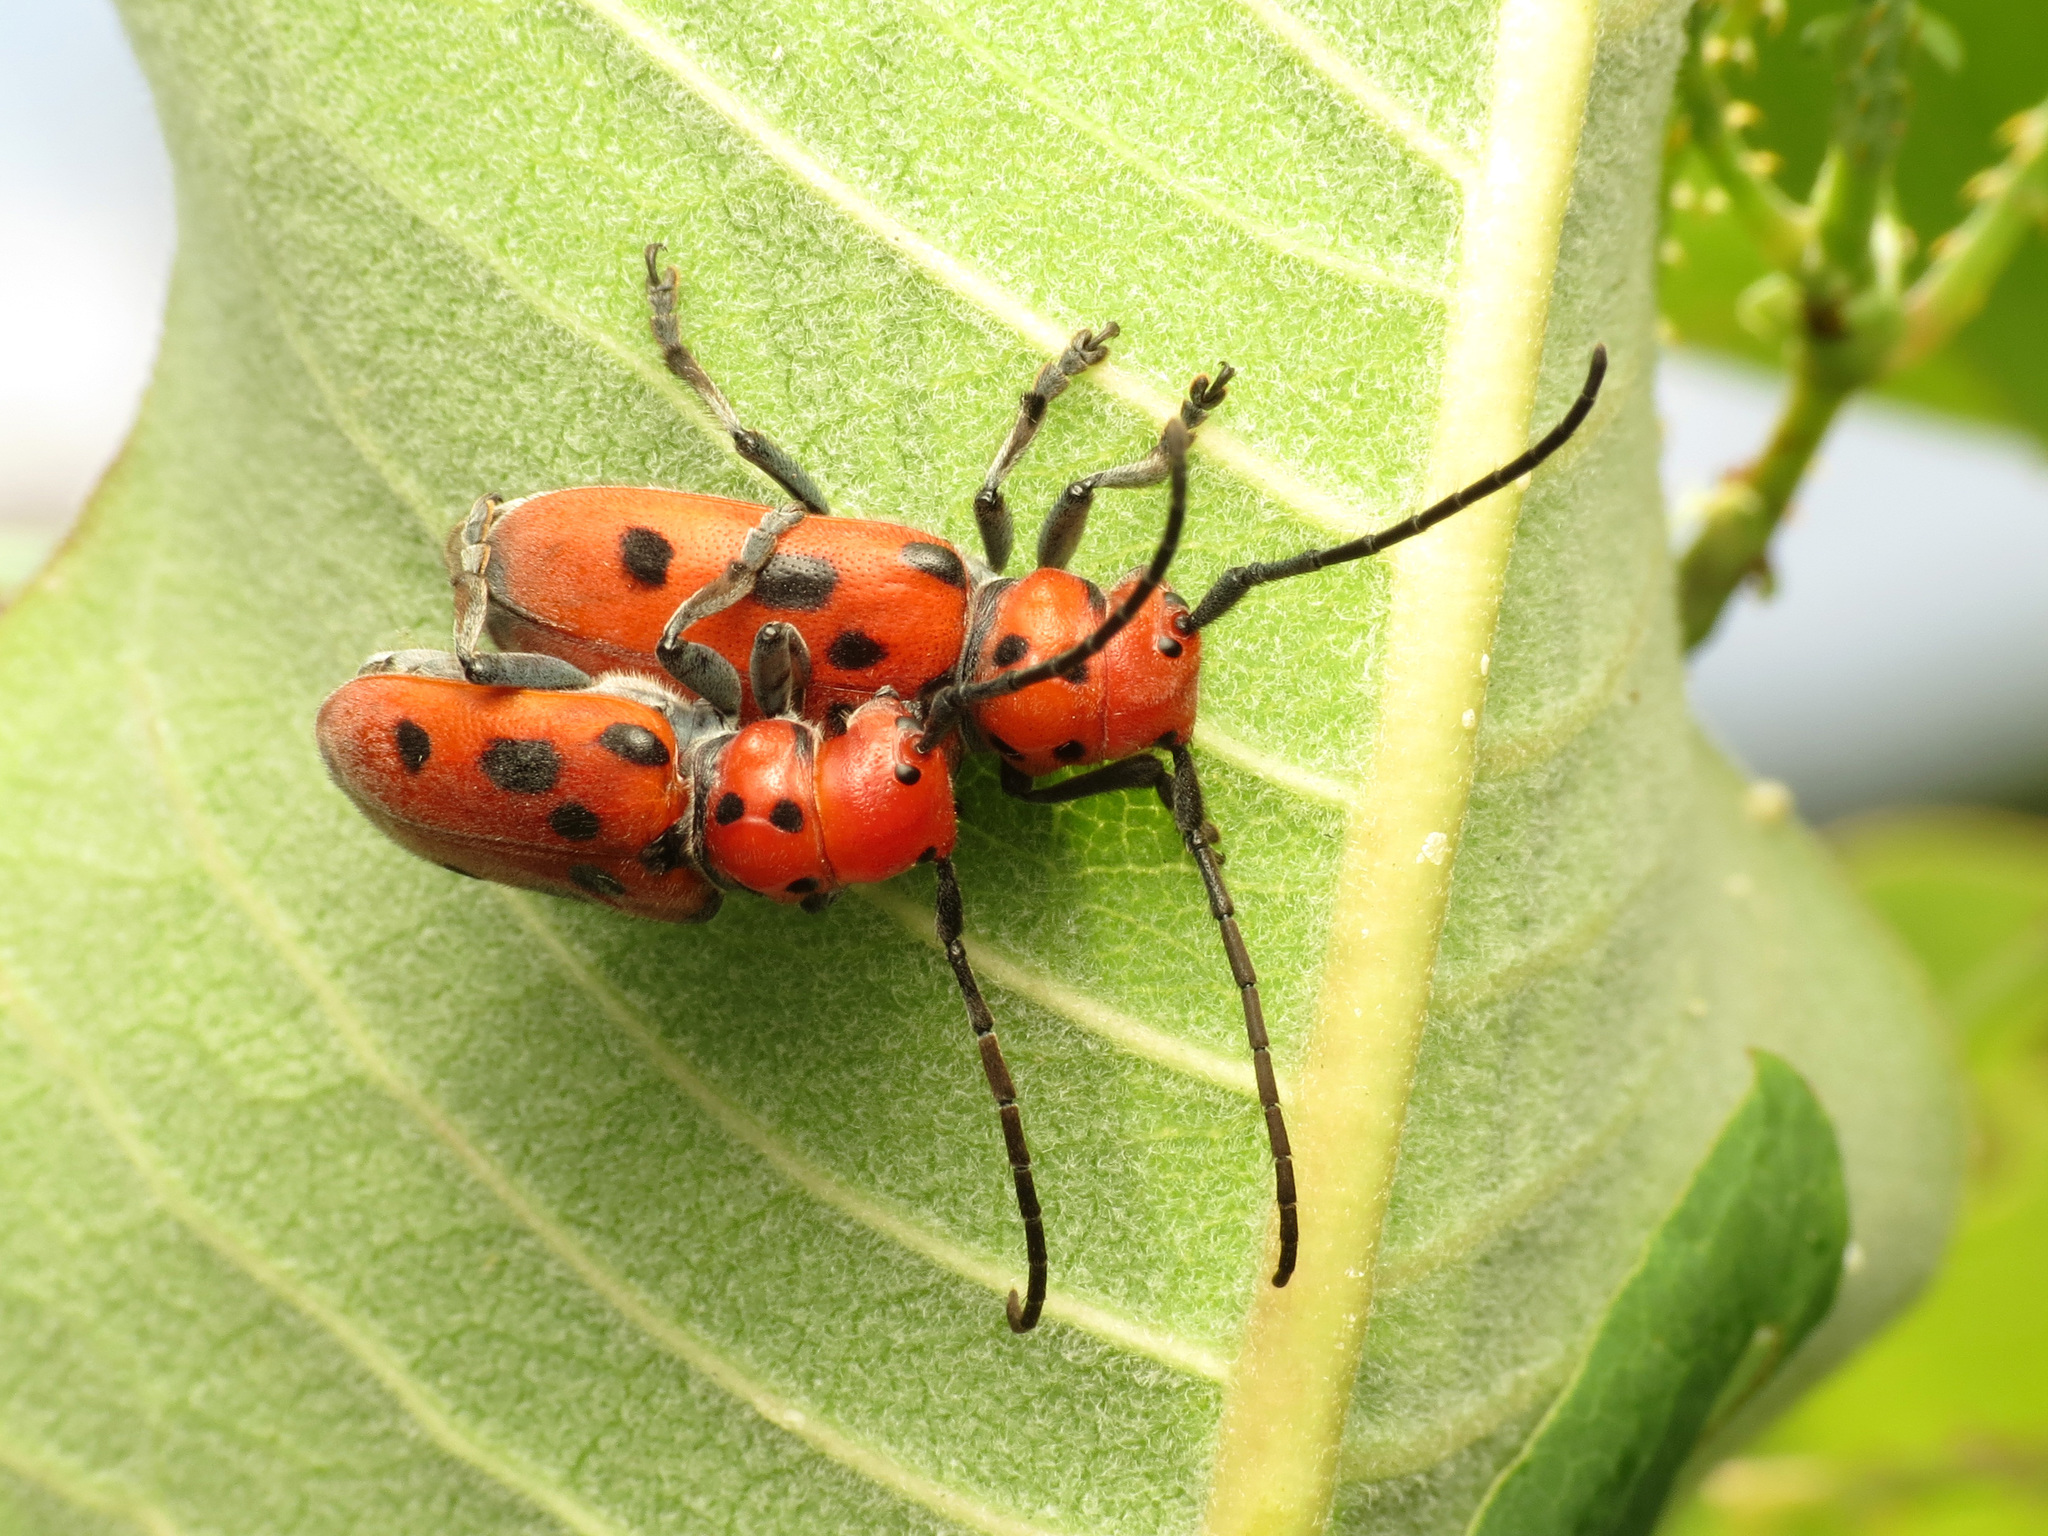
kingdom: Animalia
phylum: Arthropoda
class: Insecta
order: Coleoptera
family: Cerambycidae
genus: Tetraopes
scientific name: Tetraopes tetrophthalmus
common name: Red milkweed beetle
